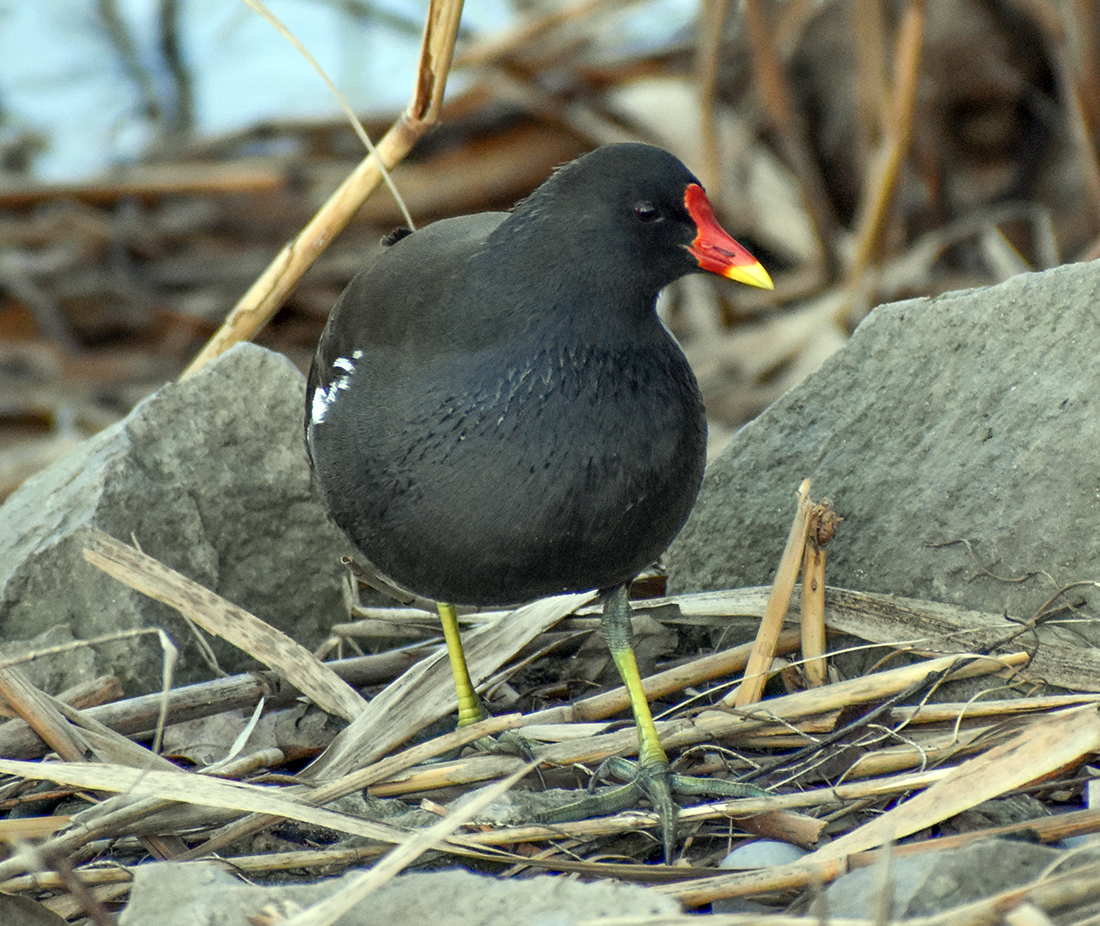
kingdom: Animalia
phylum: Chordata
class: Aves
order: Gruiformes
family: Rallidae
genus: Gallinula
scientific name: Gallinula chloropus
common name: Common moorhen
